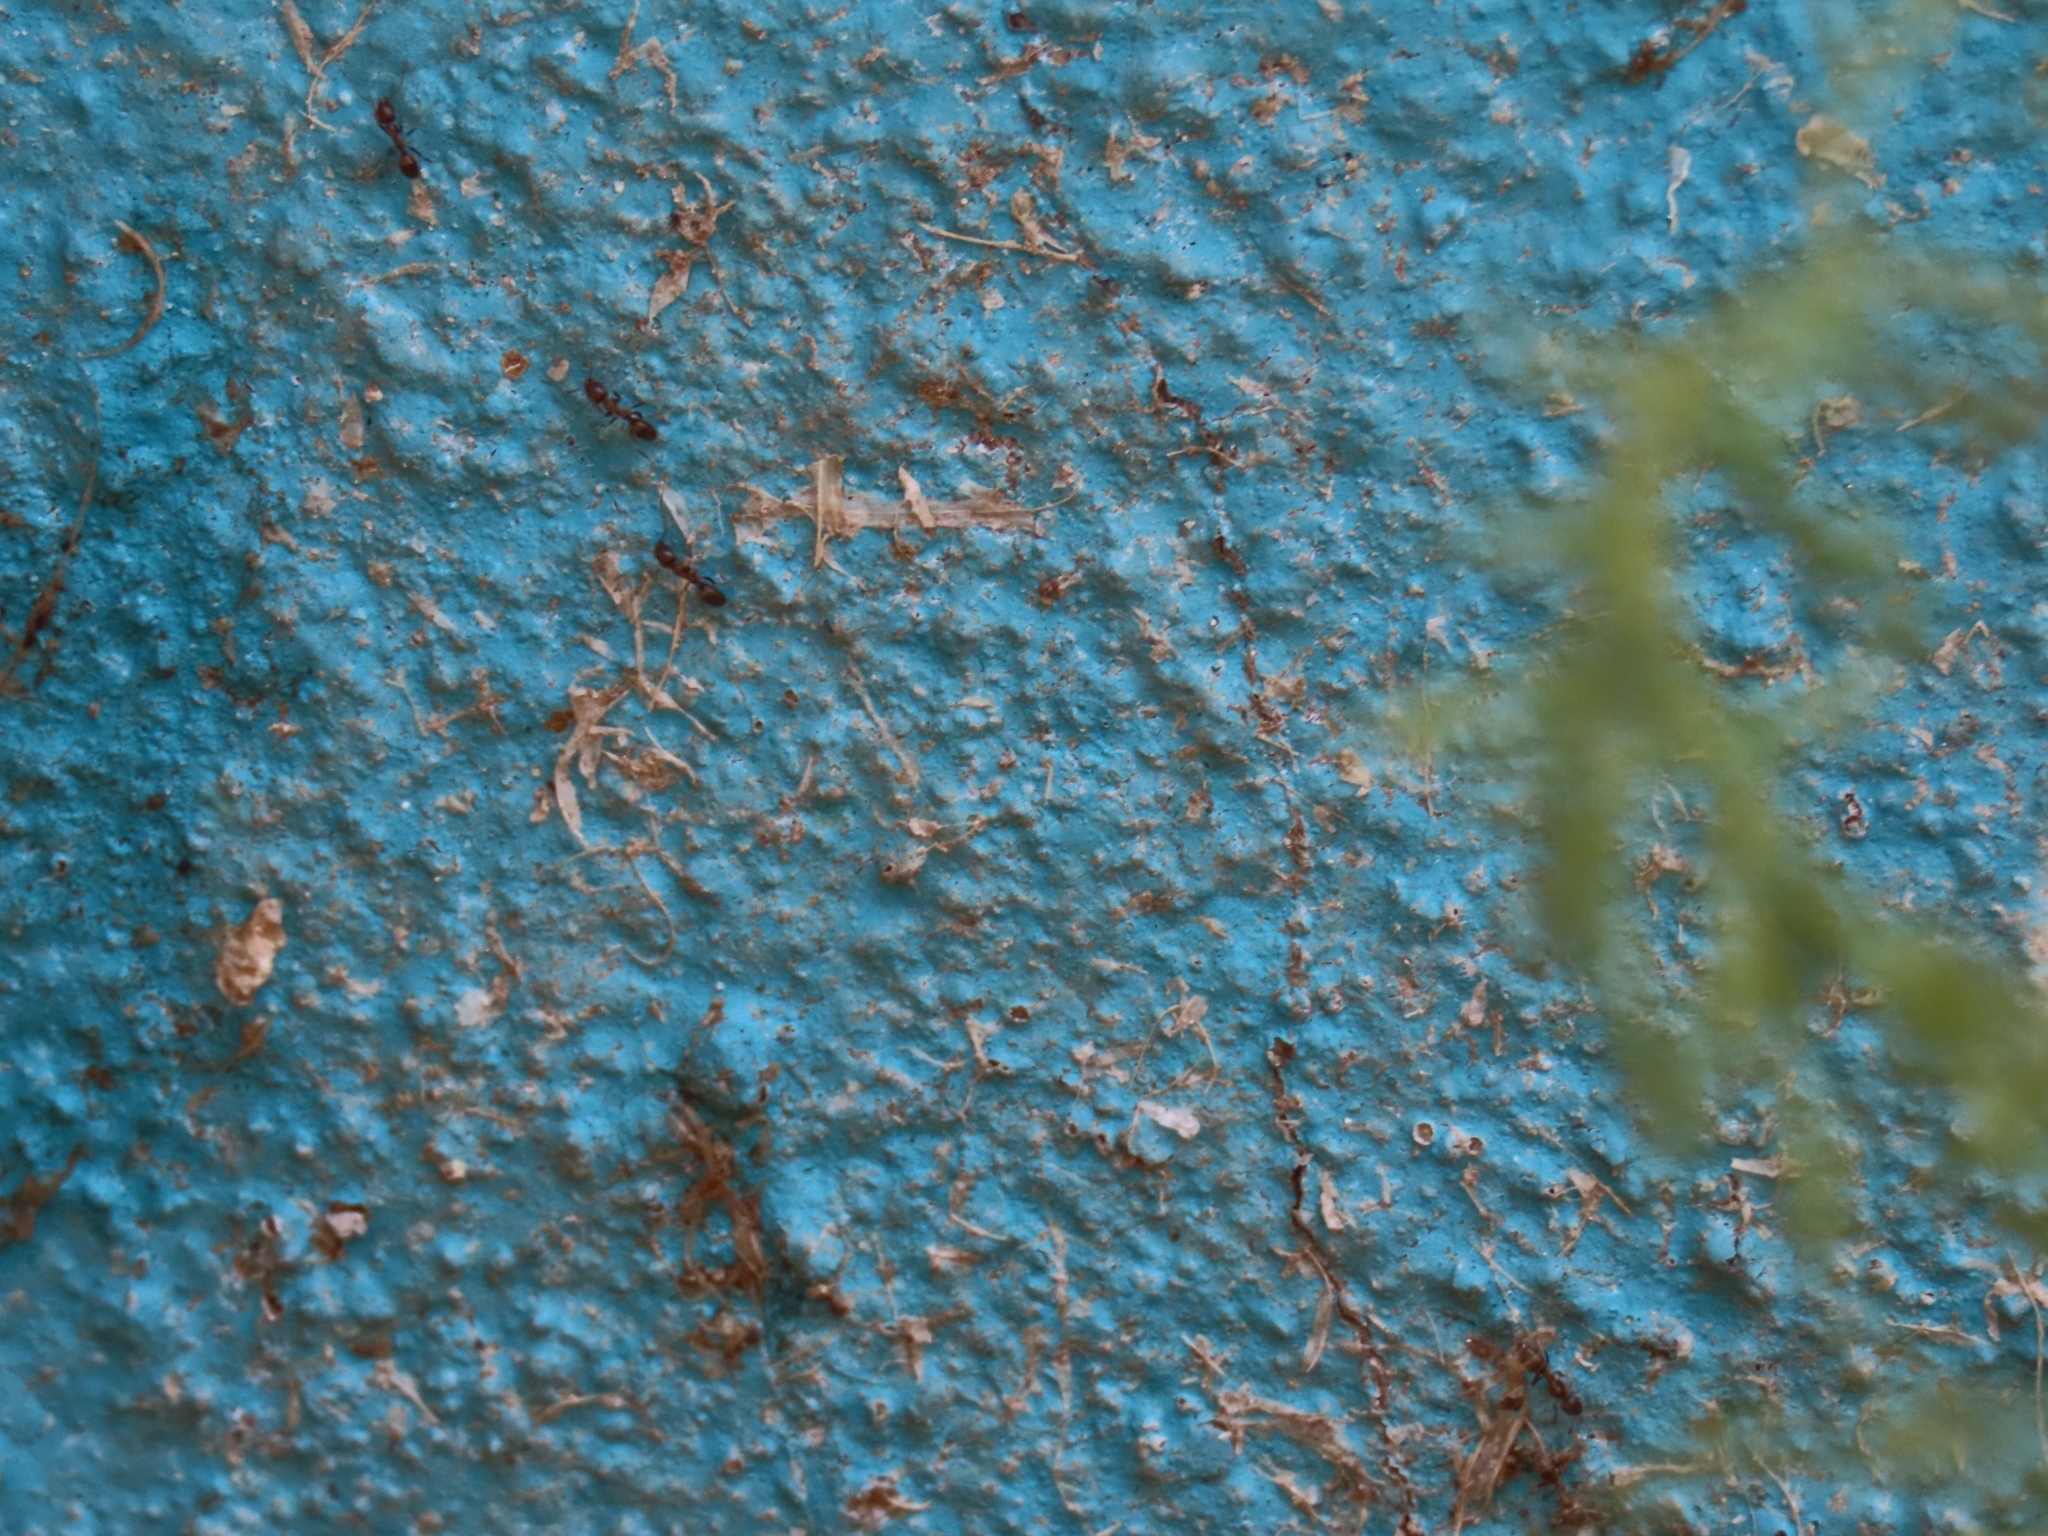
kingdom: Animalia
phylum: Arthropoda
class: Insecta
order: Hymenoptera
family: Formicidae
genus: Linepithema
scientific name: Linepithema humile
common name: Argentine ant
